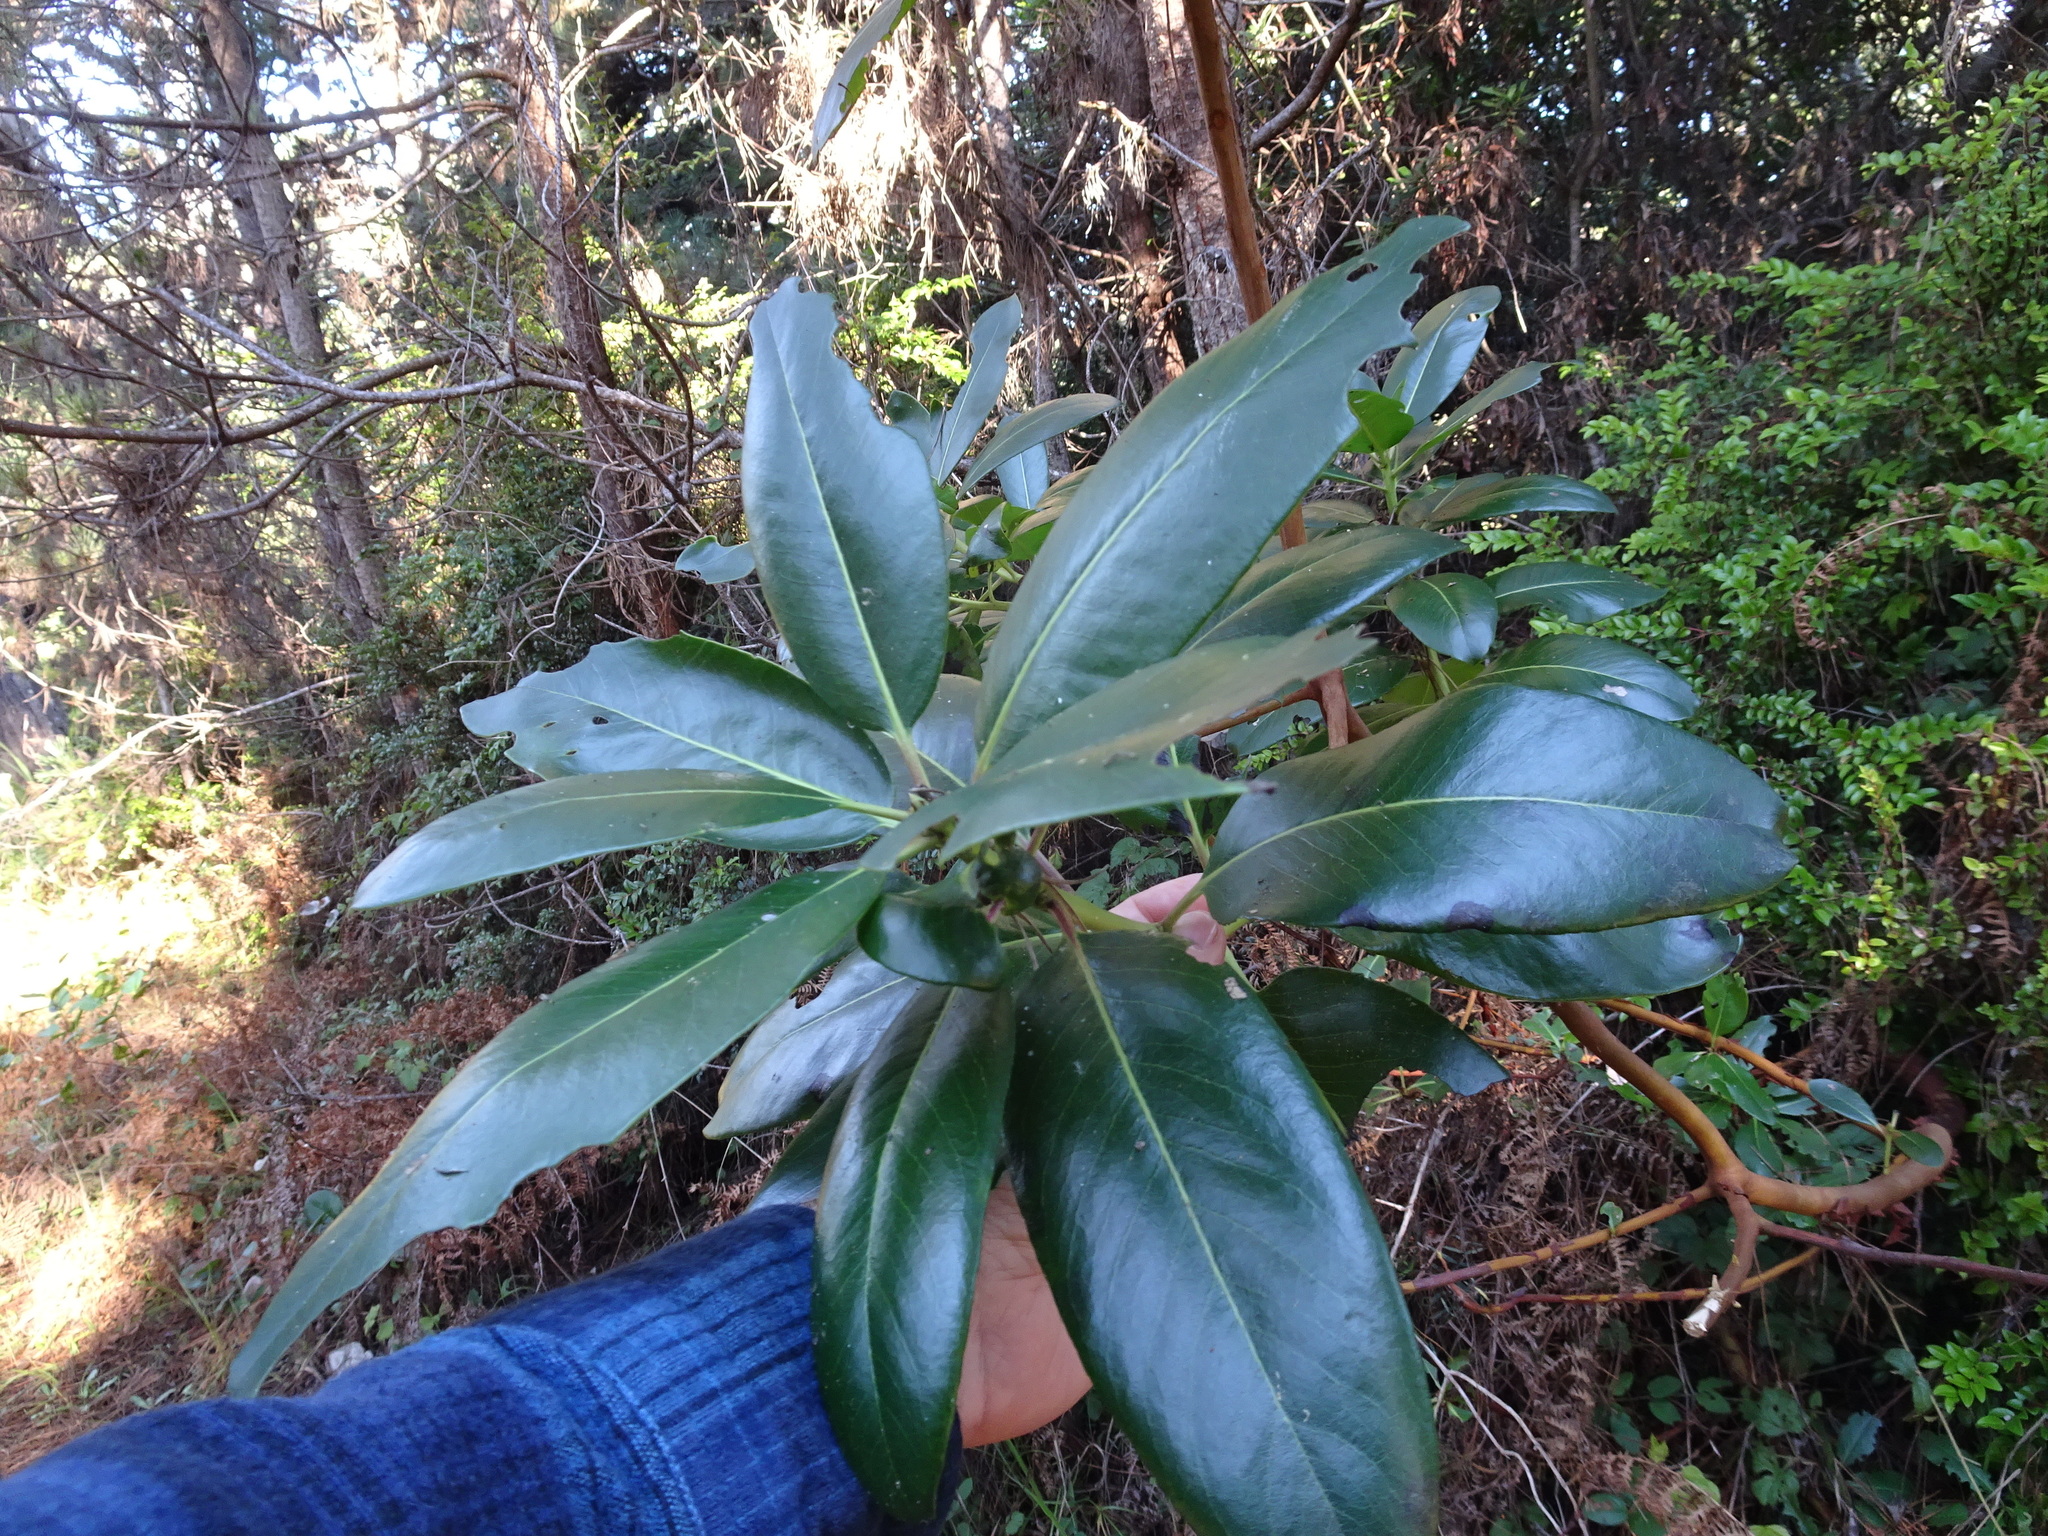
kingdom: Plantae
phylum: Tracheophyta
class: Magnoliopsida
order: Ericales
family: Ericaceae
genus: Arbutus
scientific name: Arbutus menziesii
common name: Pacific madrone
